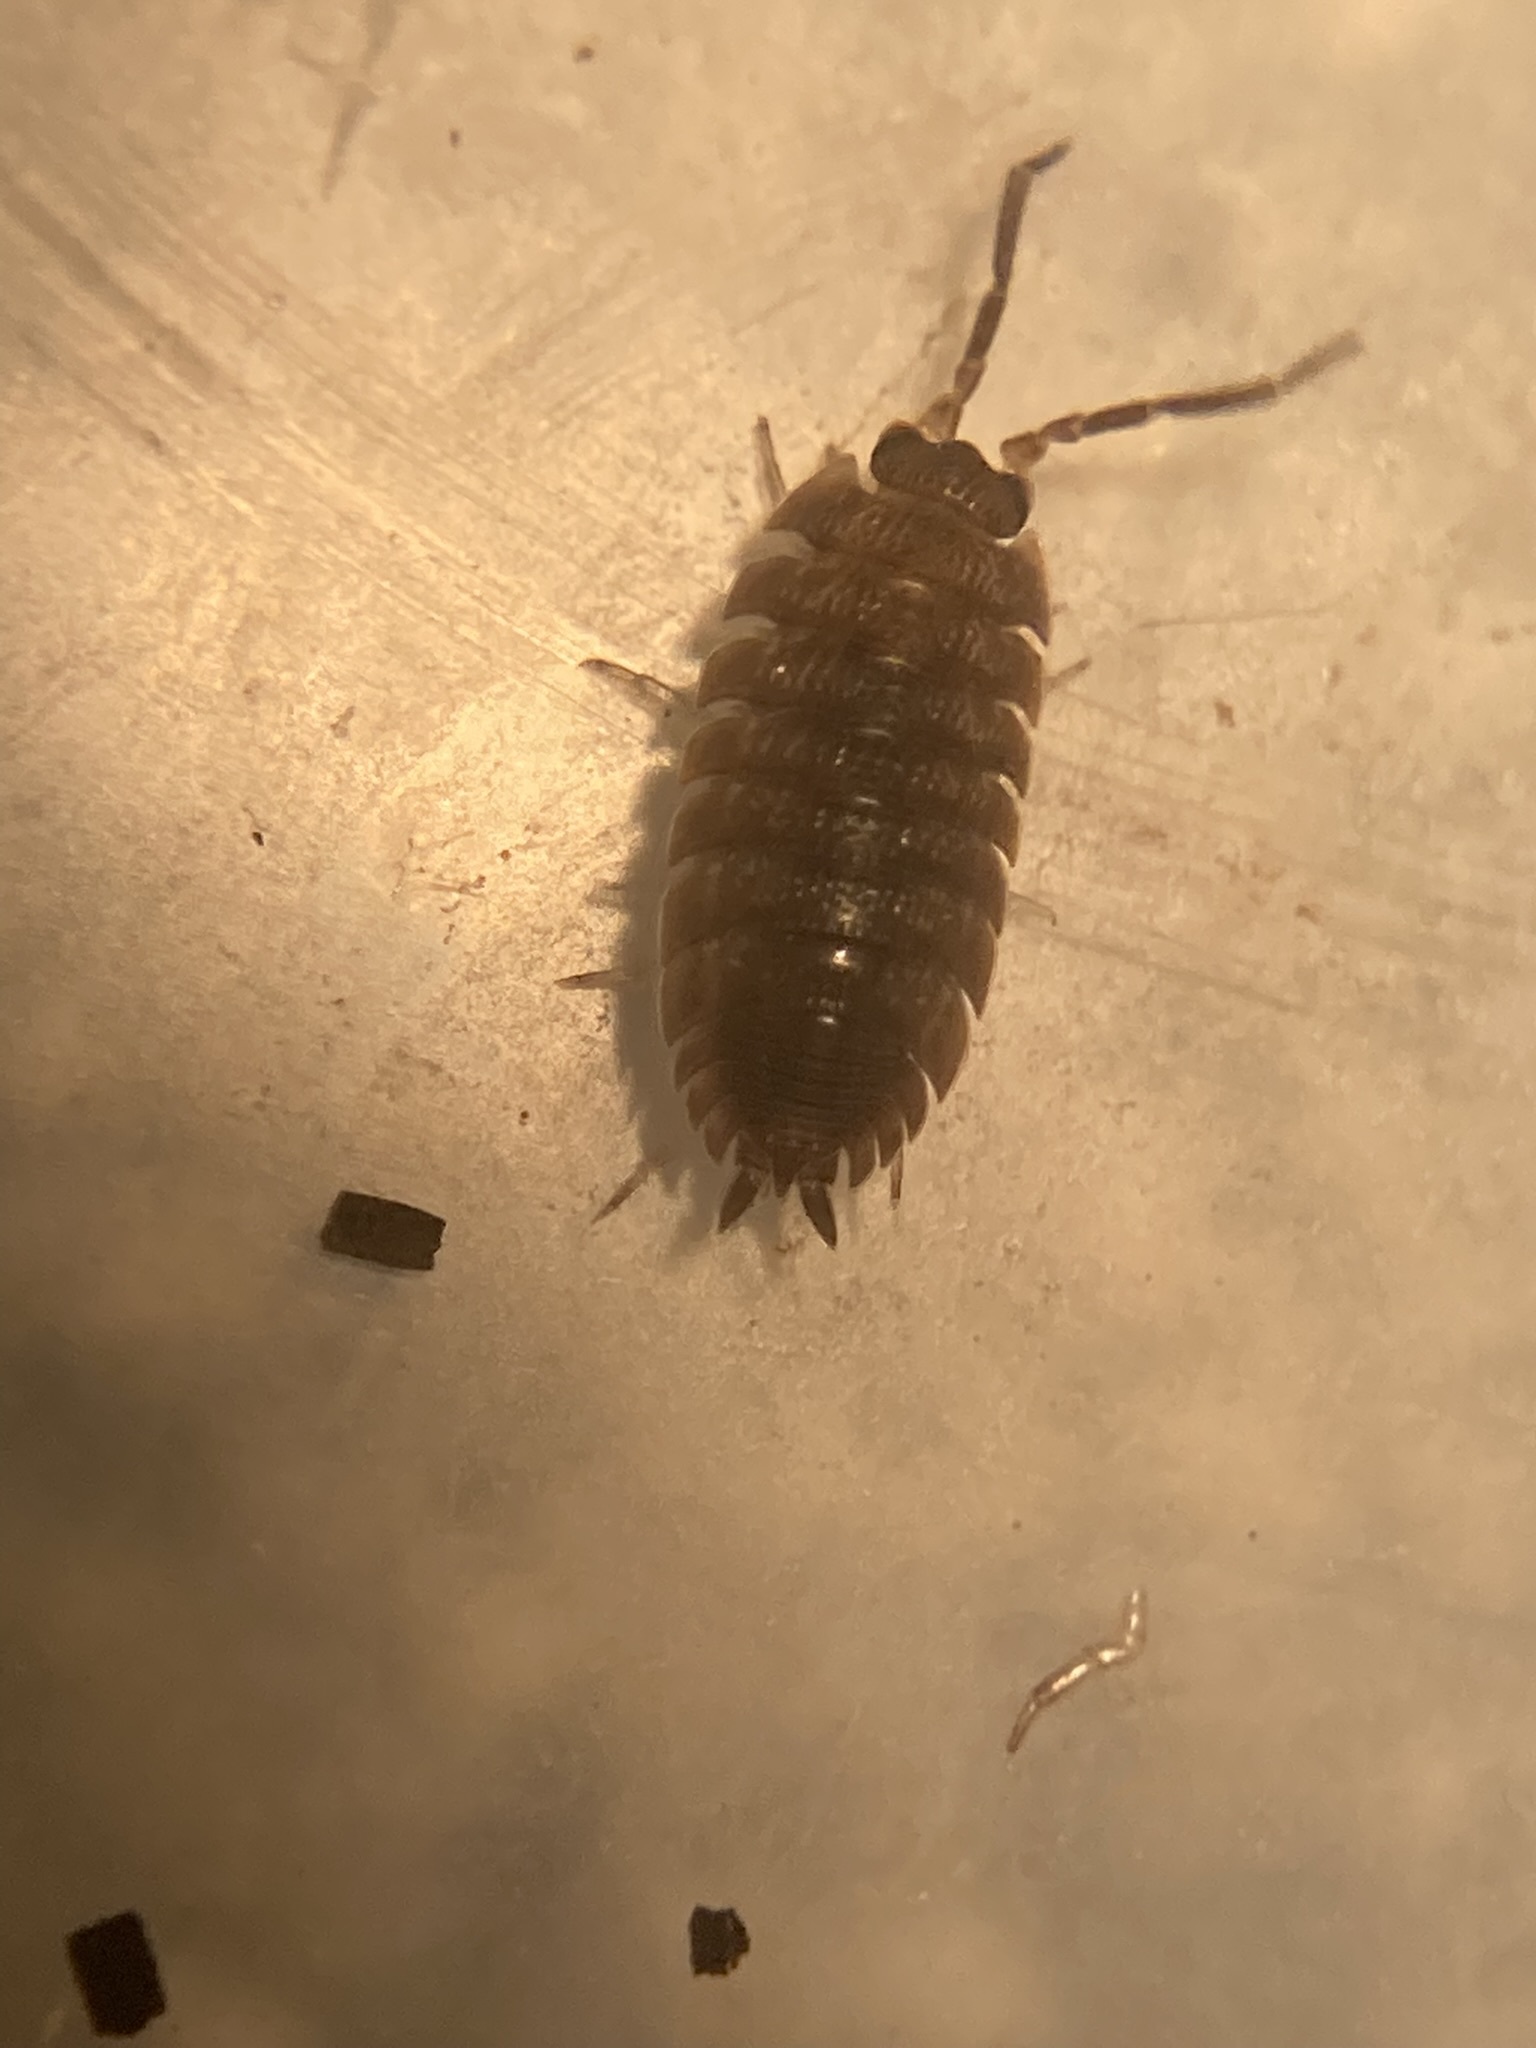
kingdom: Animalia
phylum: Arthropoda
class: Malacostraca
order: Isopoda
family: Porcellionidae
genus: Porcellio
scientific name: Porcellio scaber
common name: Common rough woodlouse
